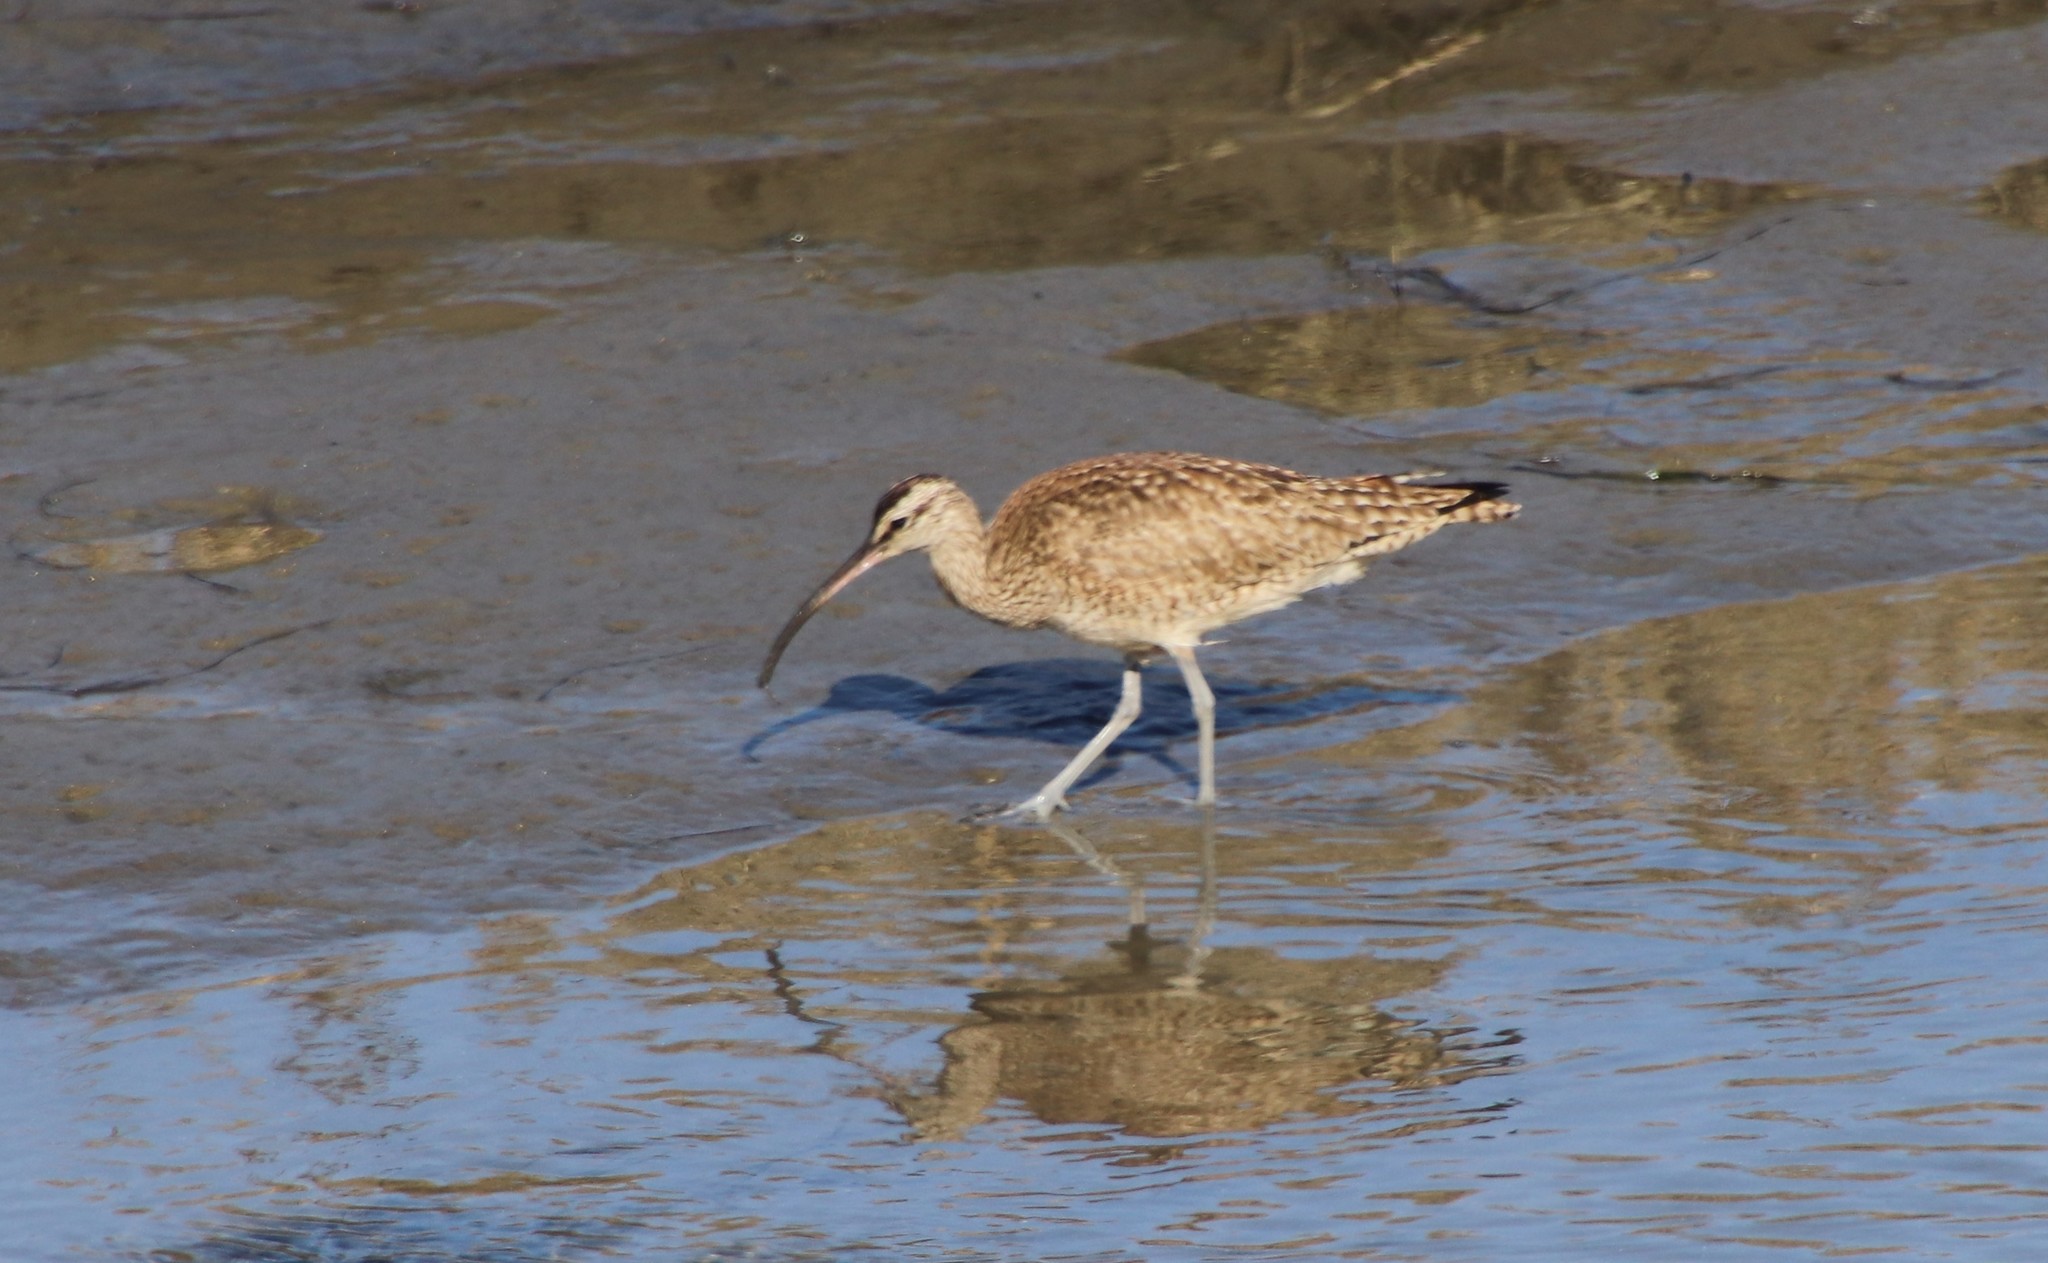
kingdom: Animalia
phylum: Chordata
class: Aves
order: Charadriiformes
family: Scolopacidae
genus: Numenius
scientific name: Numenius phaeopus
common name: Whimbrel
